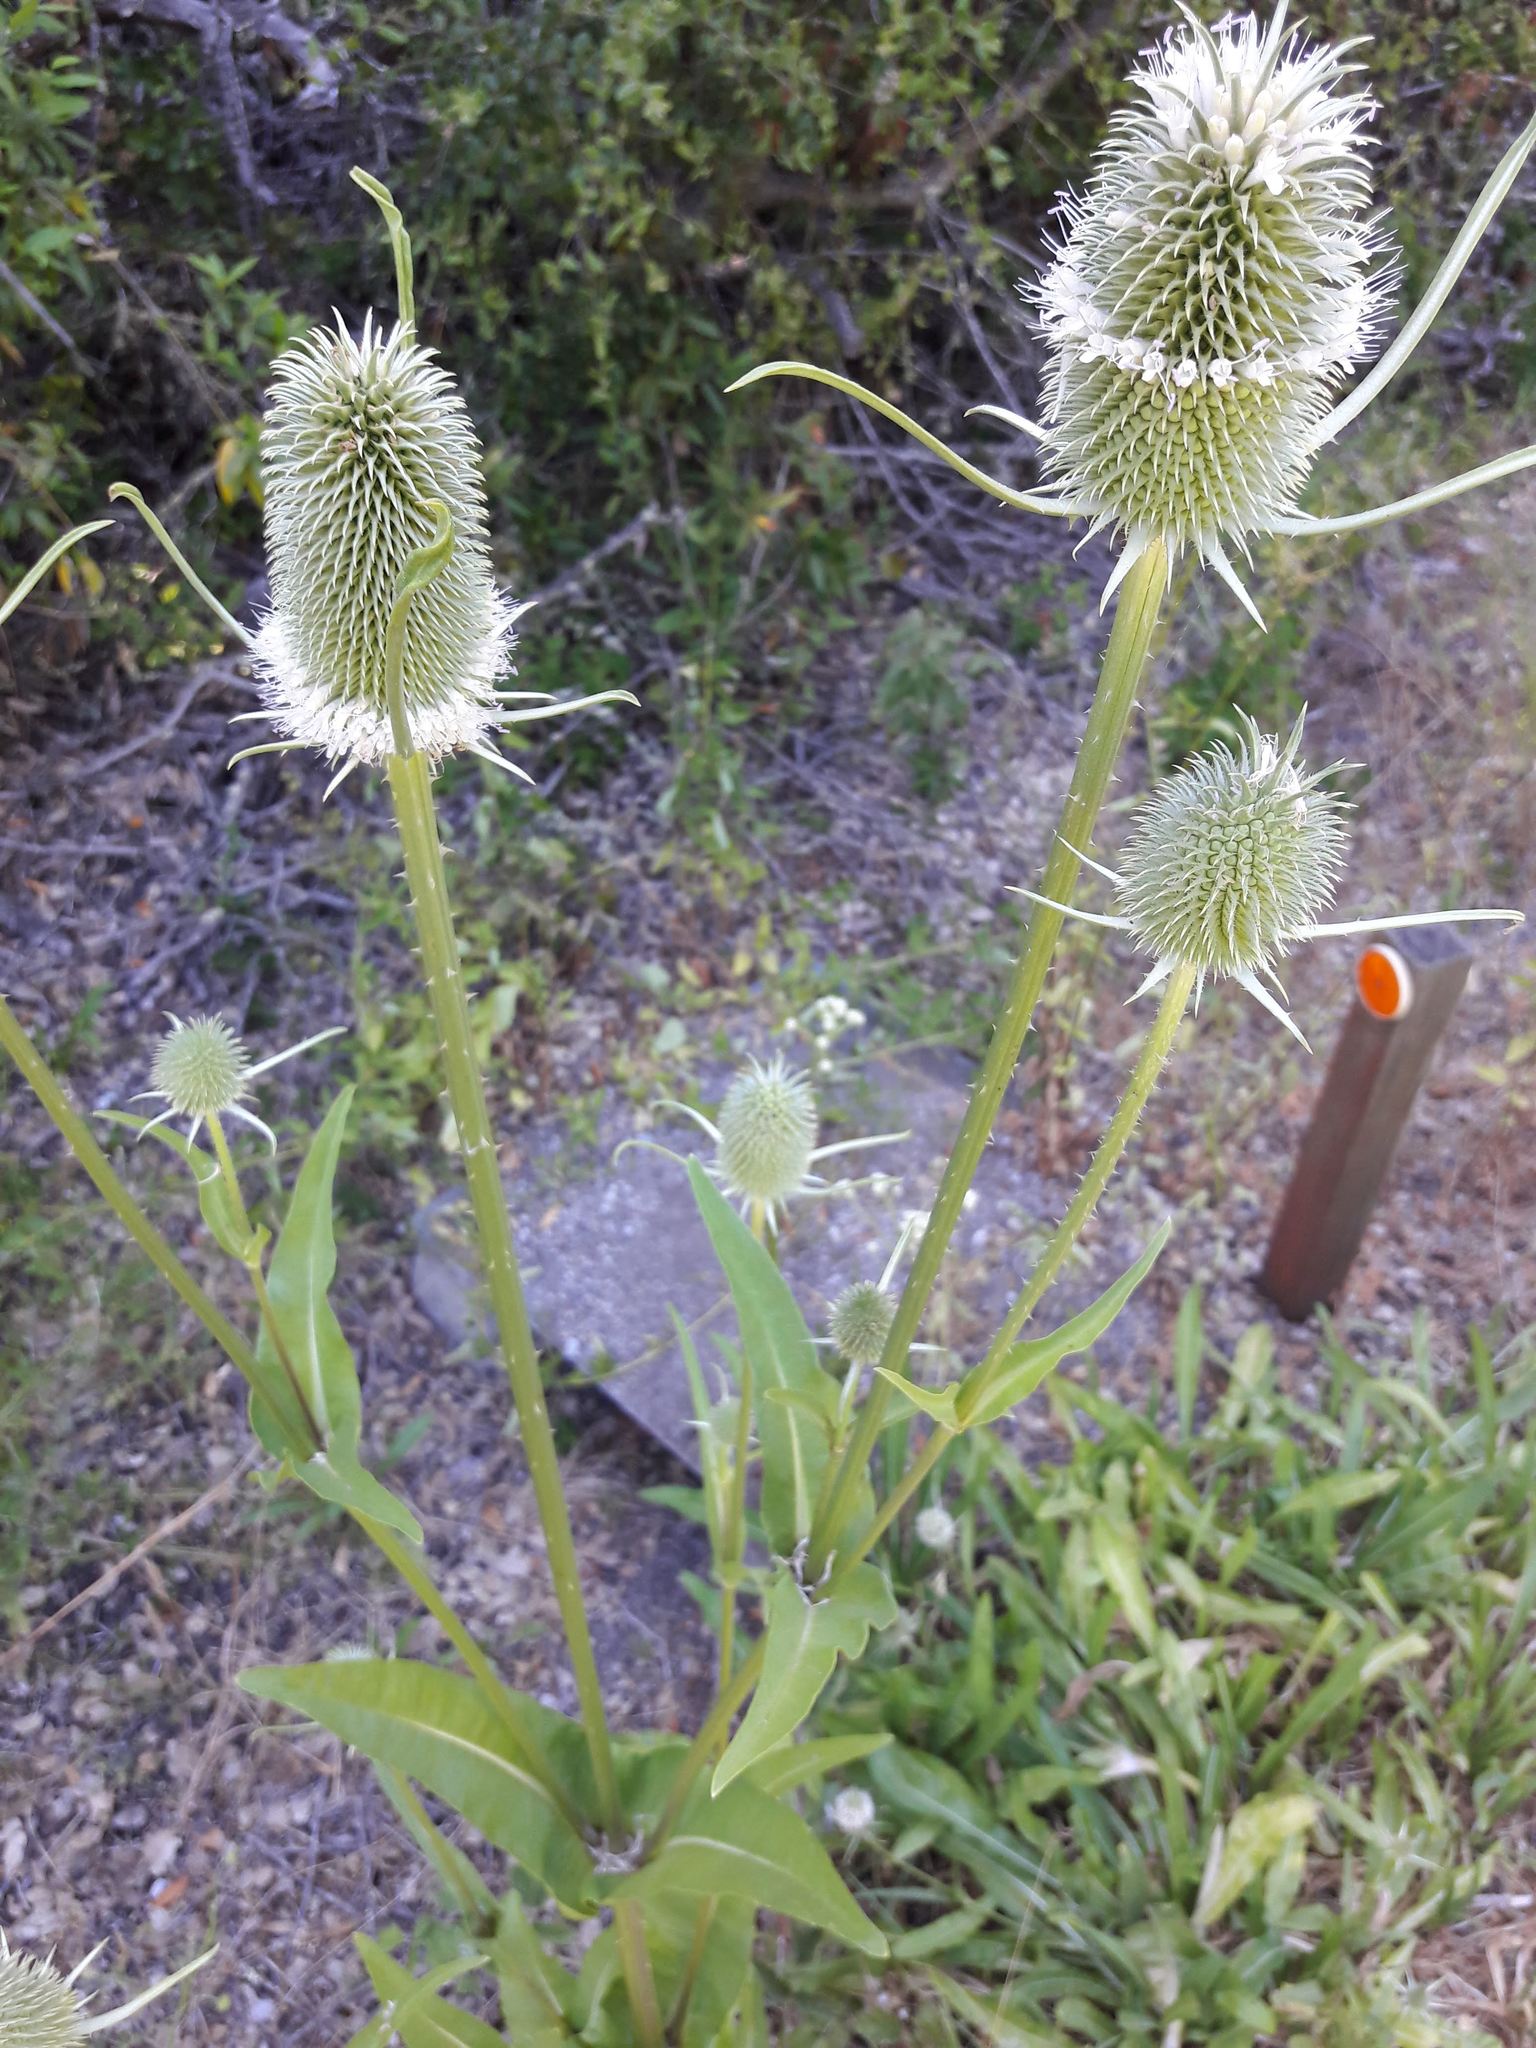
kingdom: Plantae
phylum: Tracheophyta
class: Magnoliopsida
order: Dipsacales
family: Caprifoliaceae
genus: Dipsacus
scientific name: Dipsacus sativus
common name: Fuller's teasel
